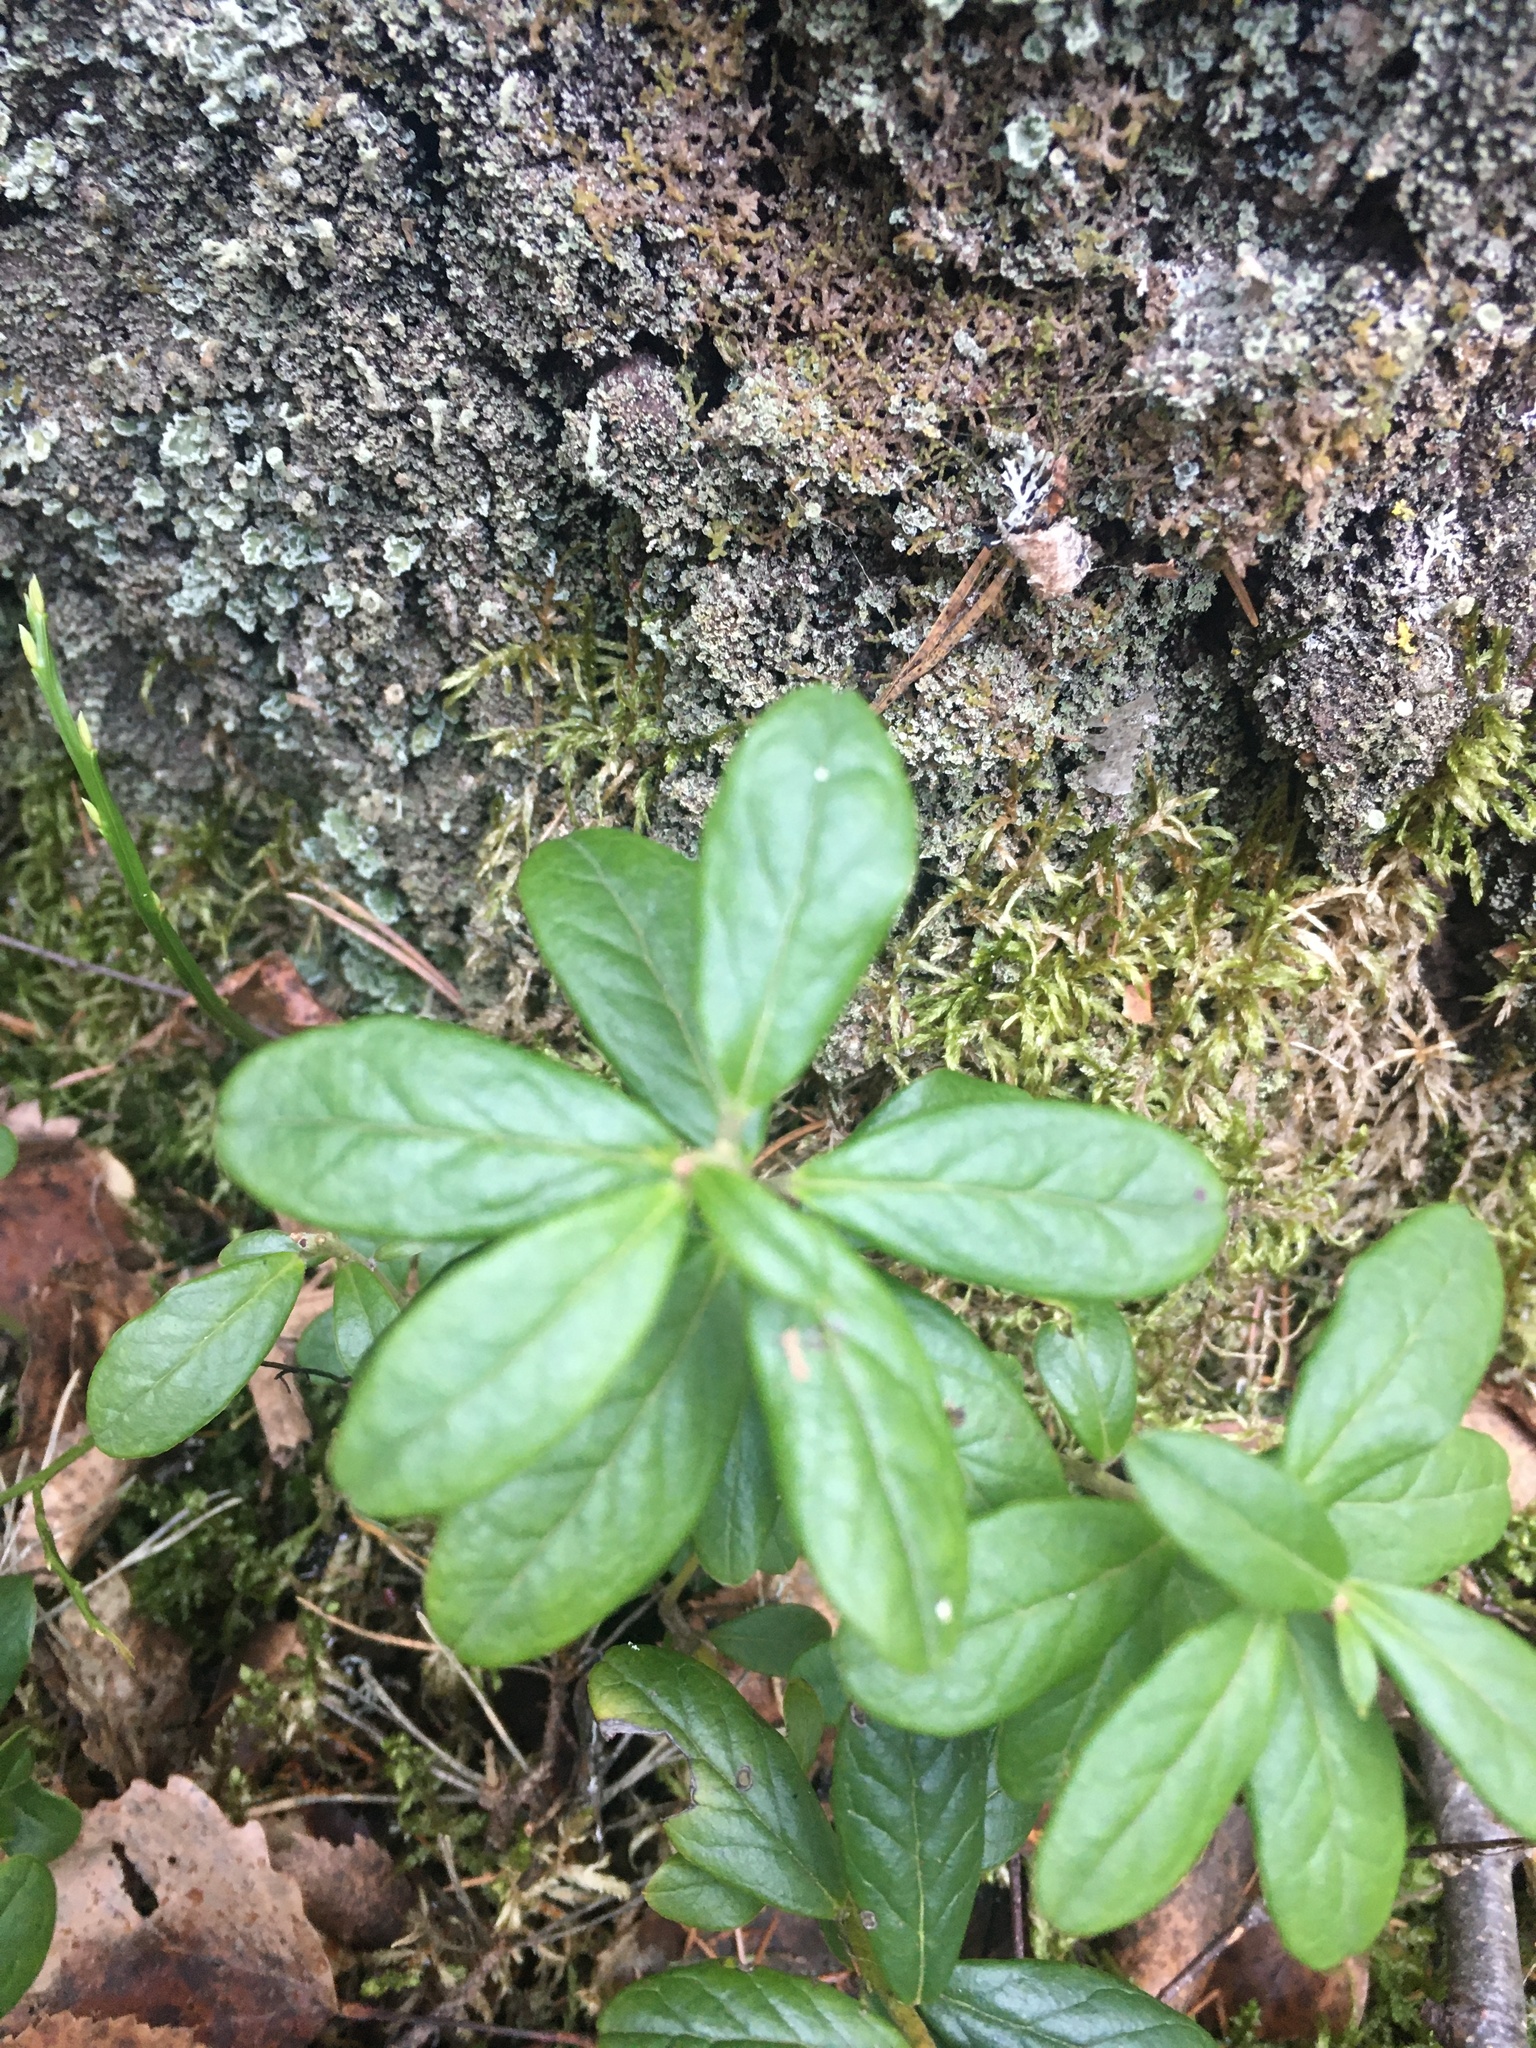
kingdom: Plantae
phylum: Tracheophyta
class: Magnoliopsida
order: Ericales
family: Ericaceae
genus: Vaccinium
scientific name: Vaccinium vitis-idaea
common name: Cowberry
